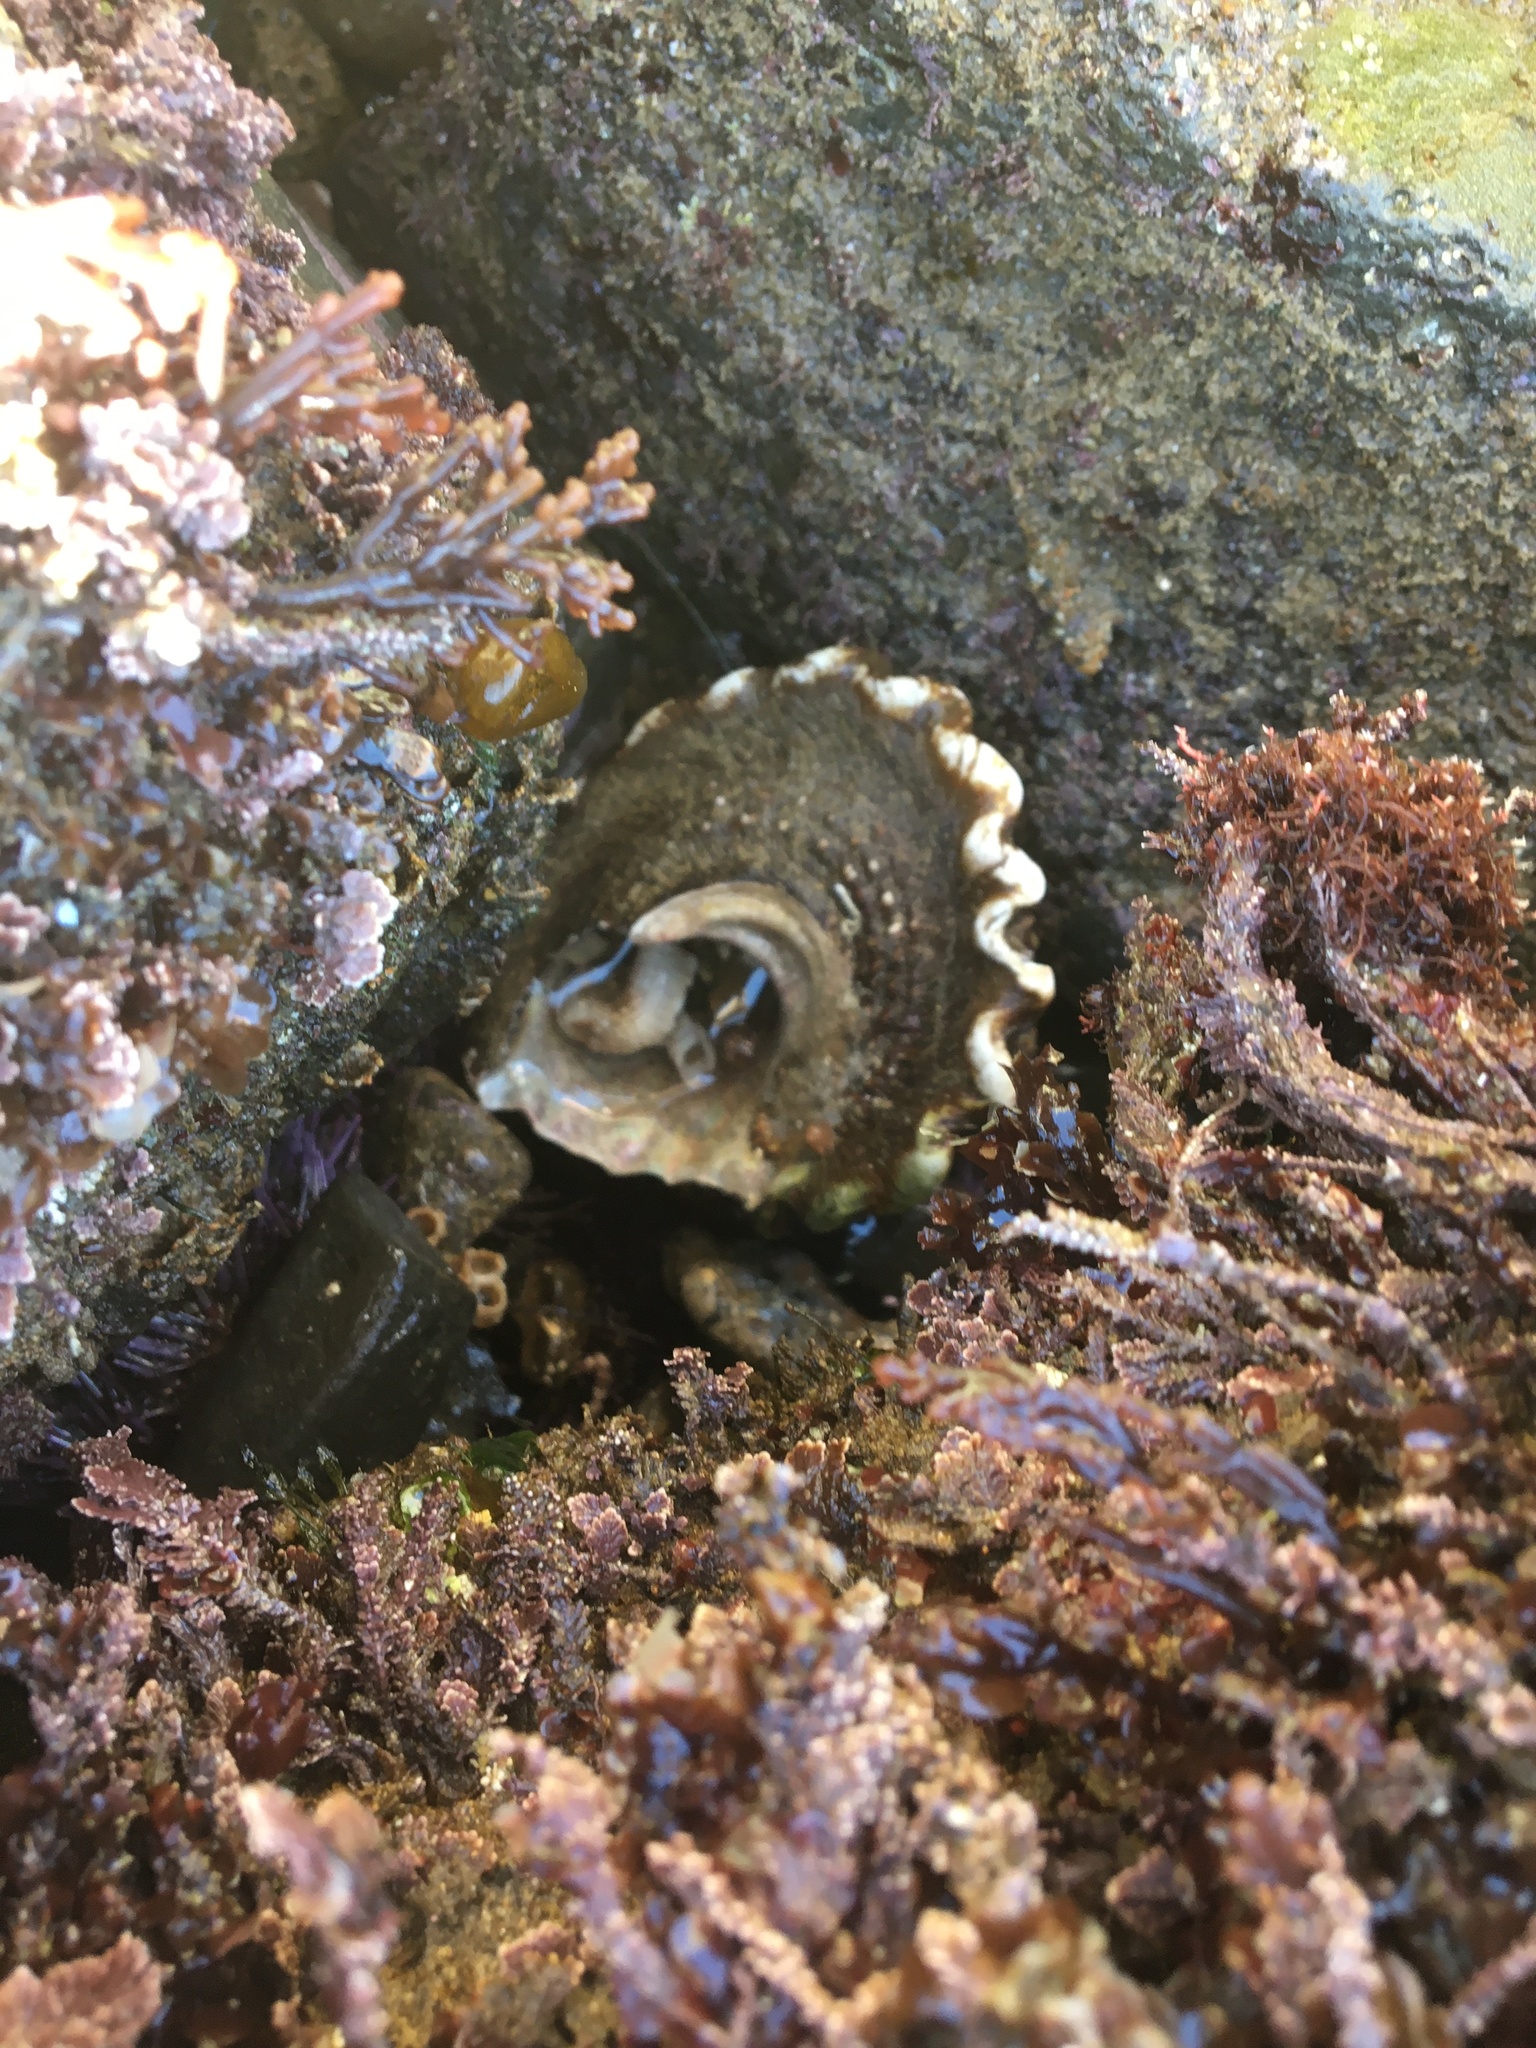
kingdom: Animalia
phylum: Mollusca
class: Gastropoda
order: Trochida
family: Turbinidae
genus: Megastraea
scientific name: Megastraea undosa
